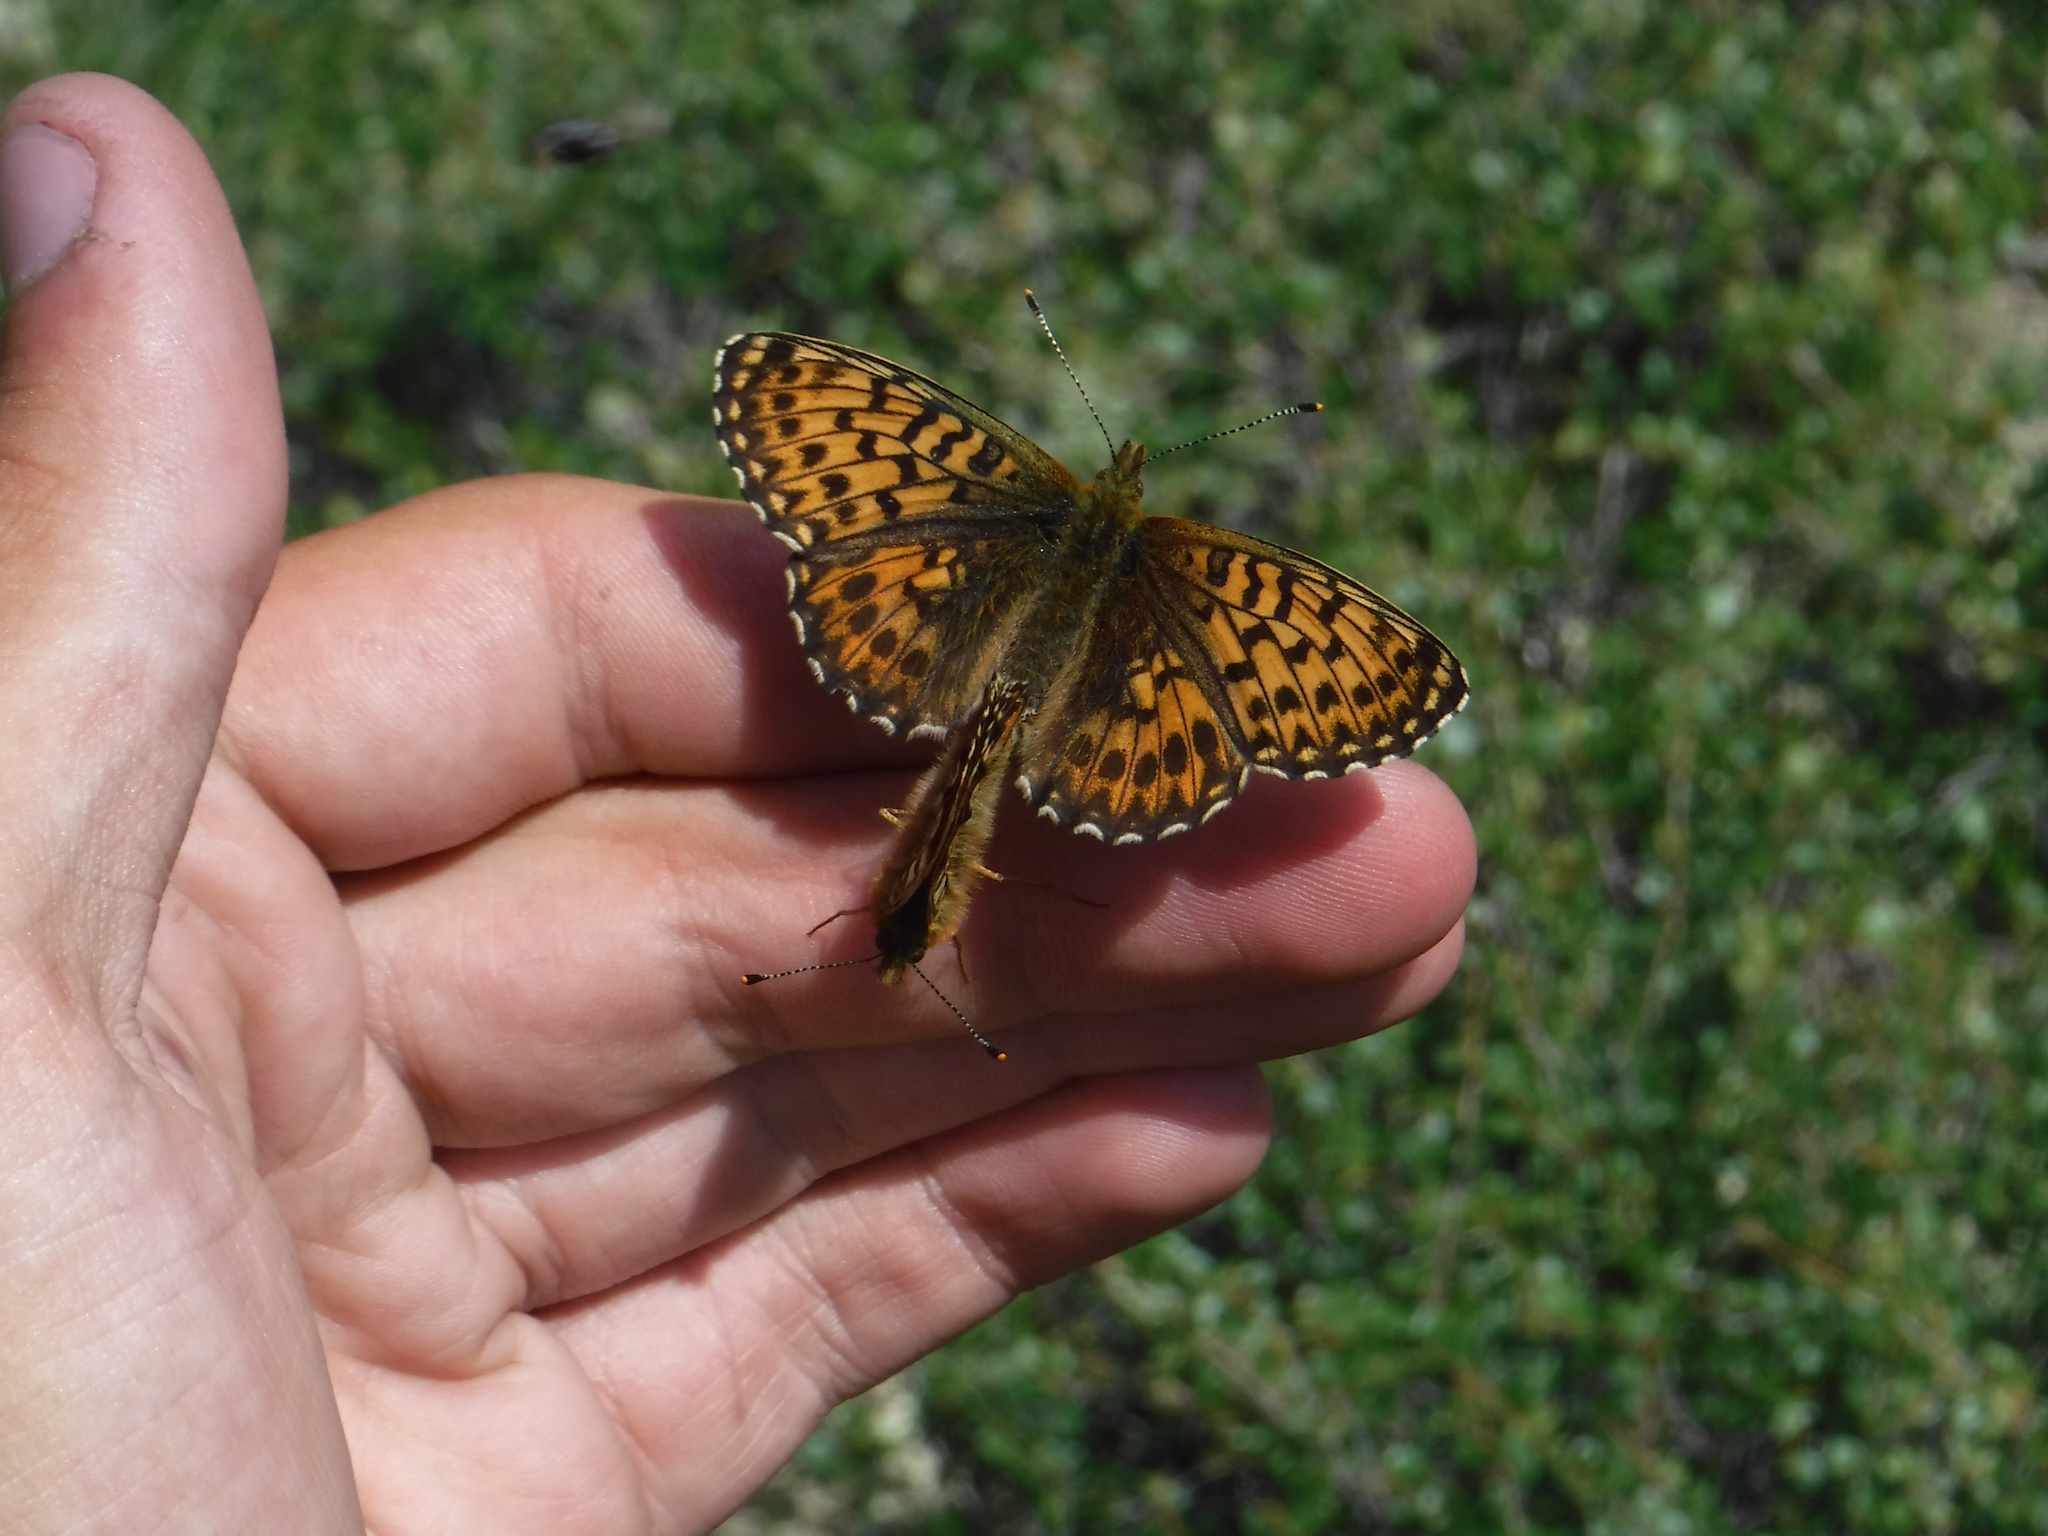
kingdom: Animalia
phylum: Arthropoda
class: Insecta
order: Lepidoptera
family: Nymphalidae
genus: Boloria
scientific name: Boloria titania
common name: Titania's fritillary
